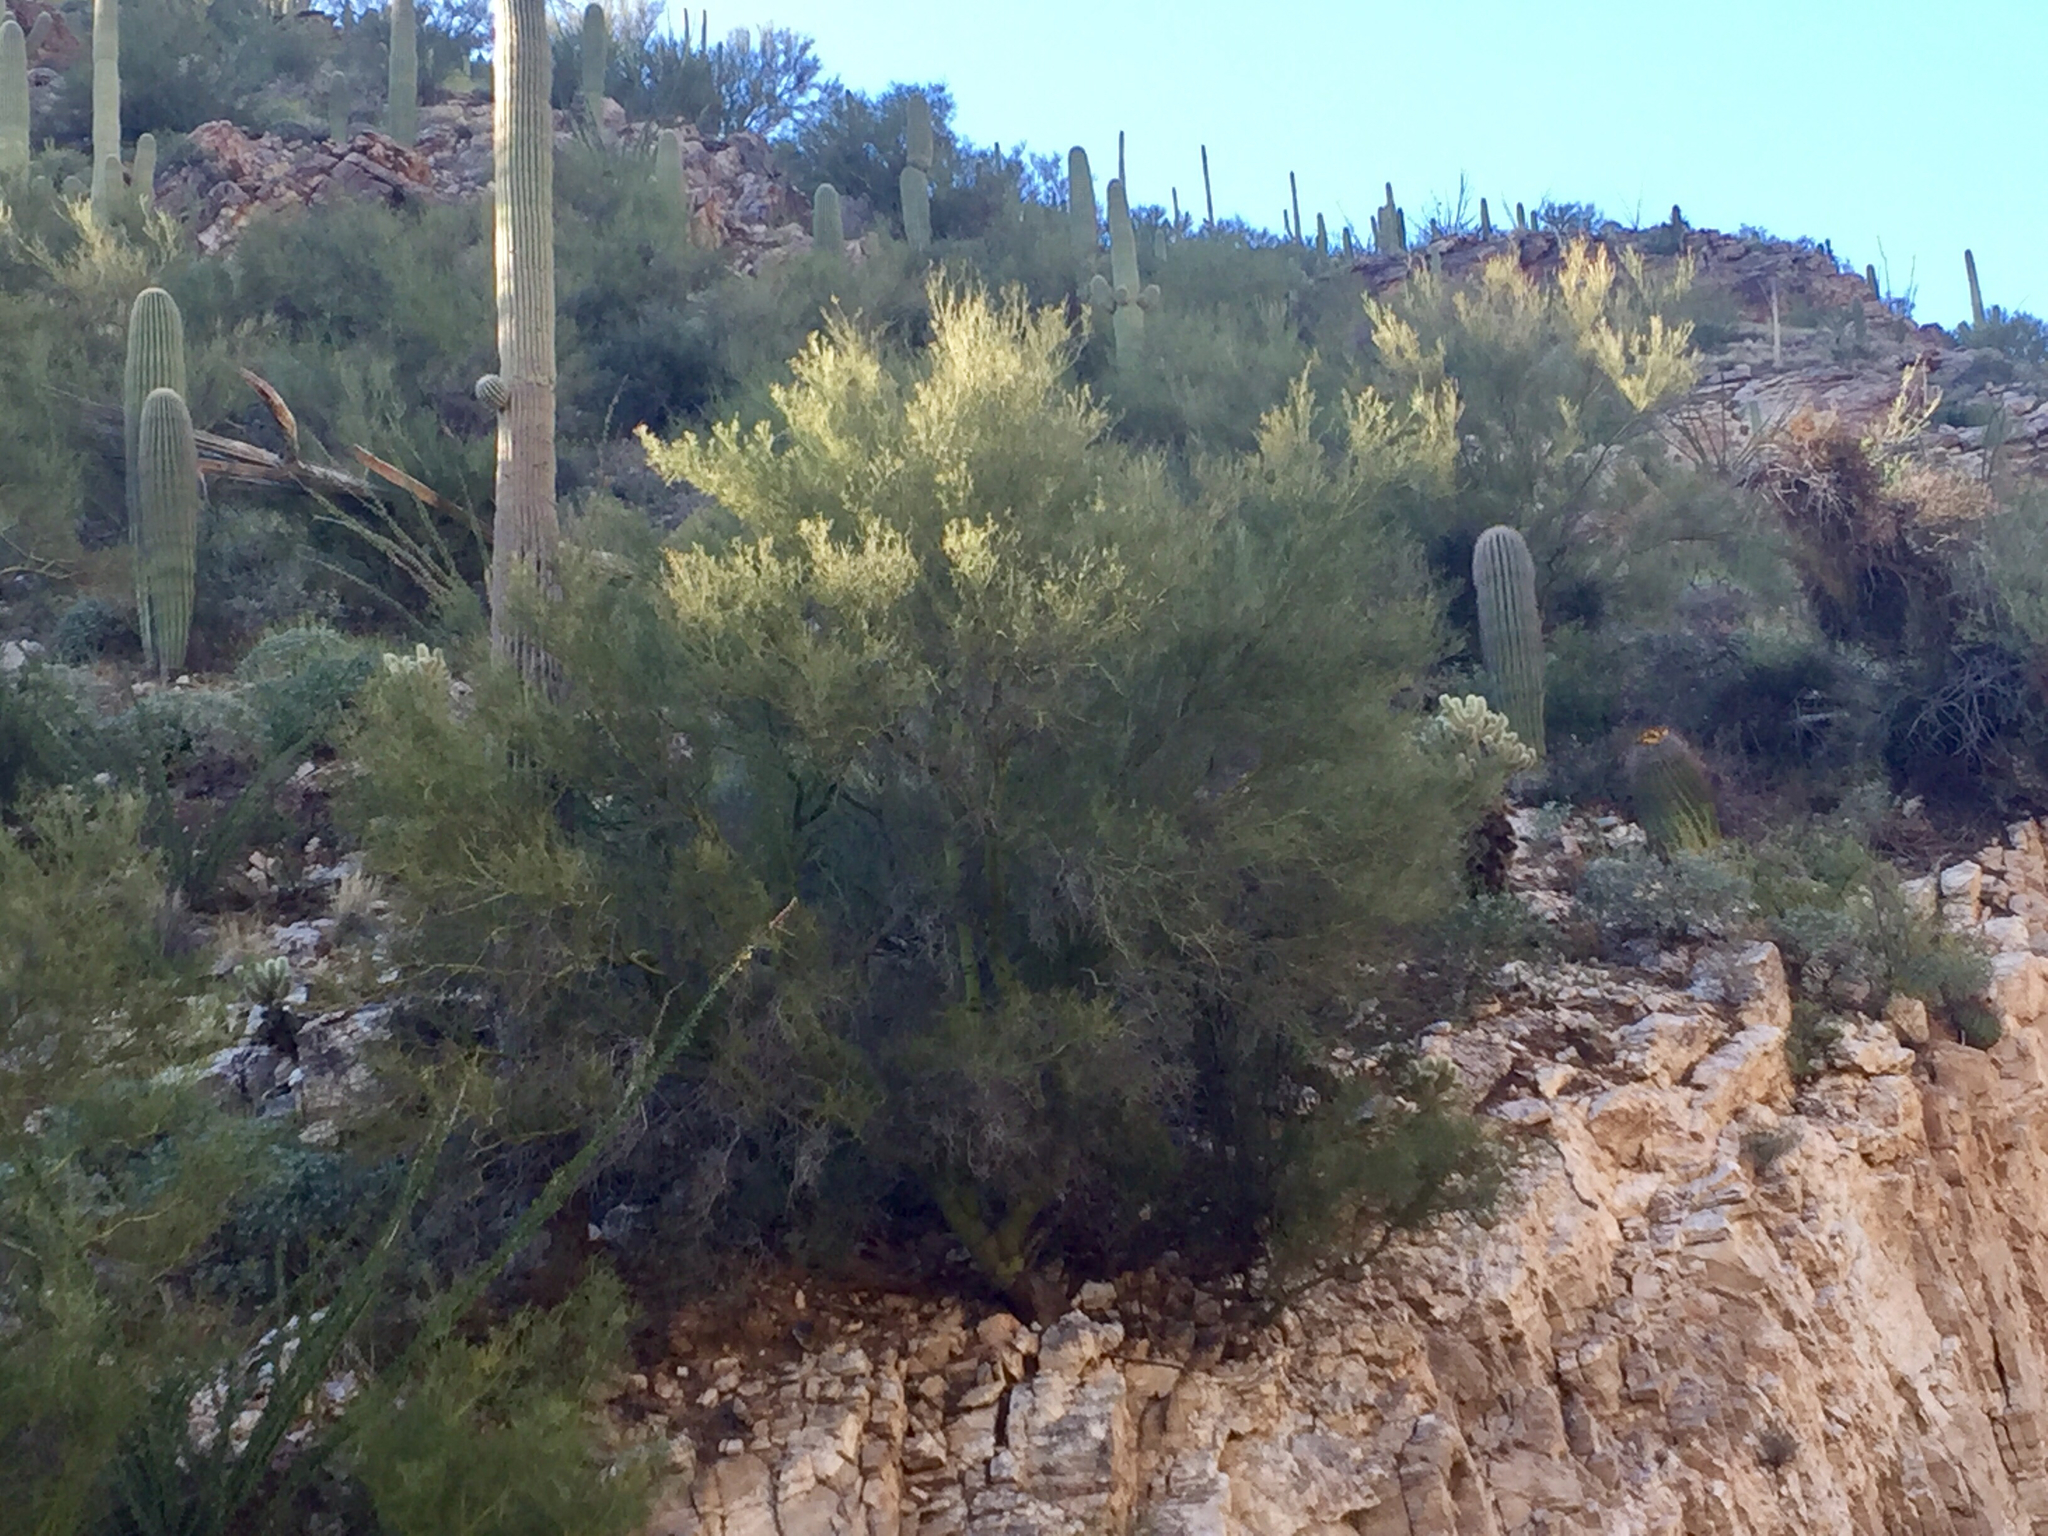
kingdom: Plantae
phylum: Tracheophyta
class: Magnoliopsida
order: Fabales
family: Fabaceae
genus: Parkinsonia
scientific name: Parkinsonia microphylla
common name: Yellow paloverde
